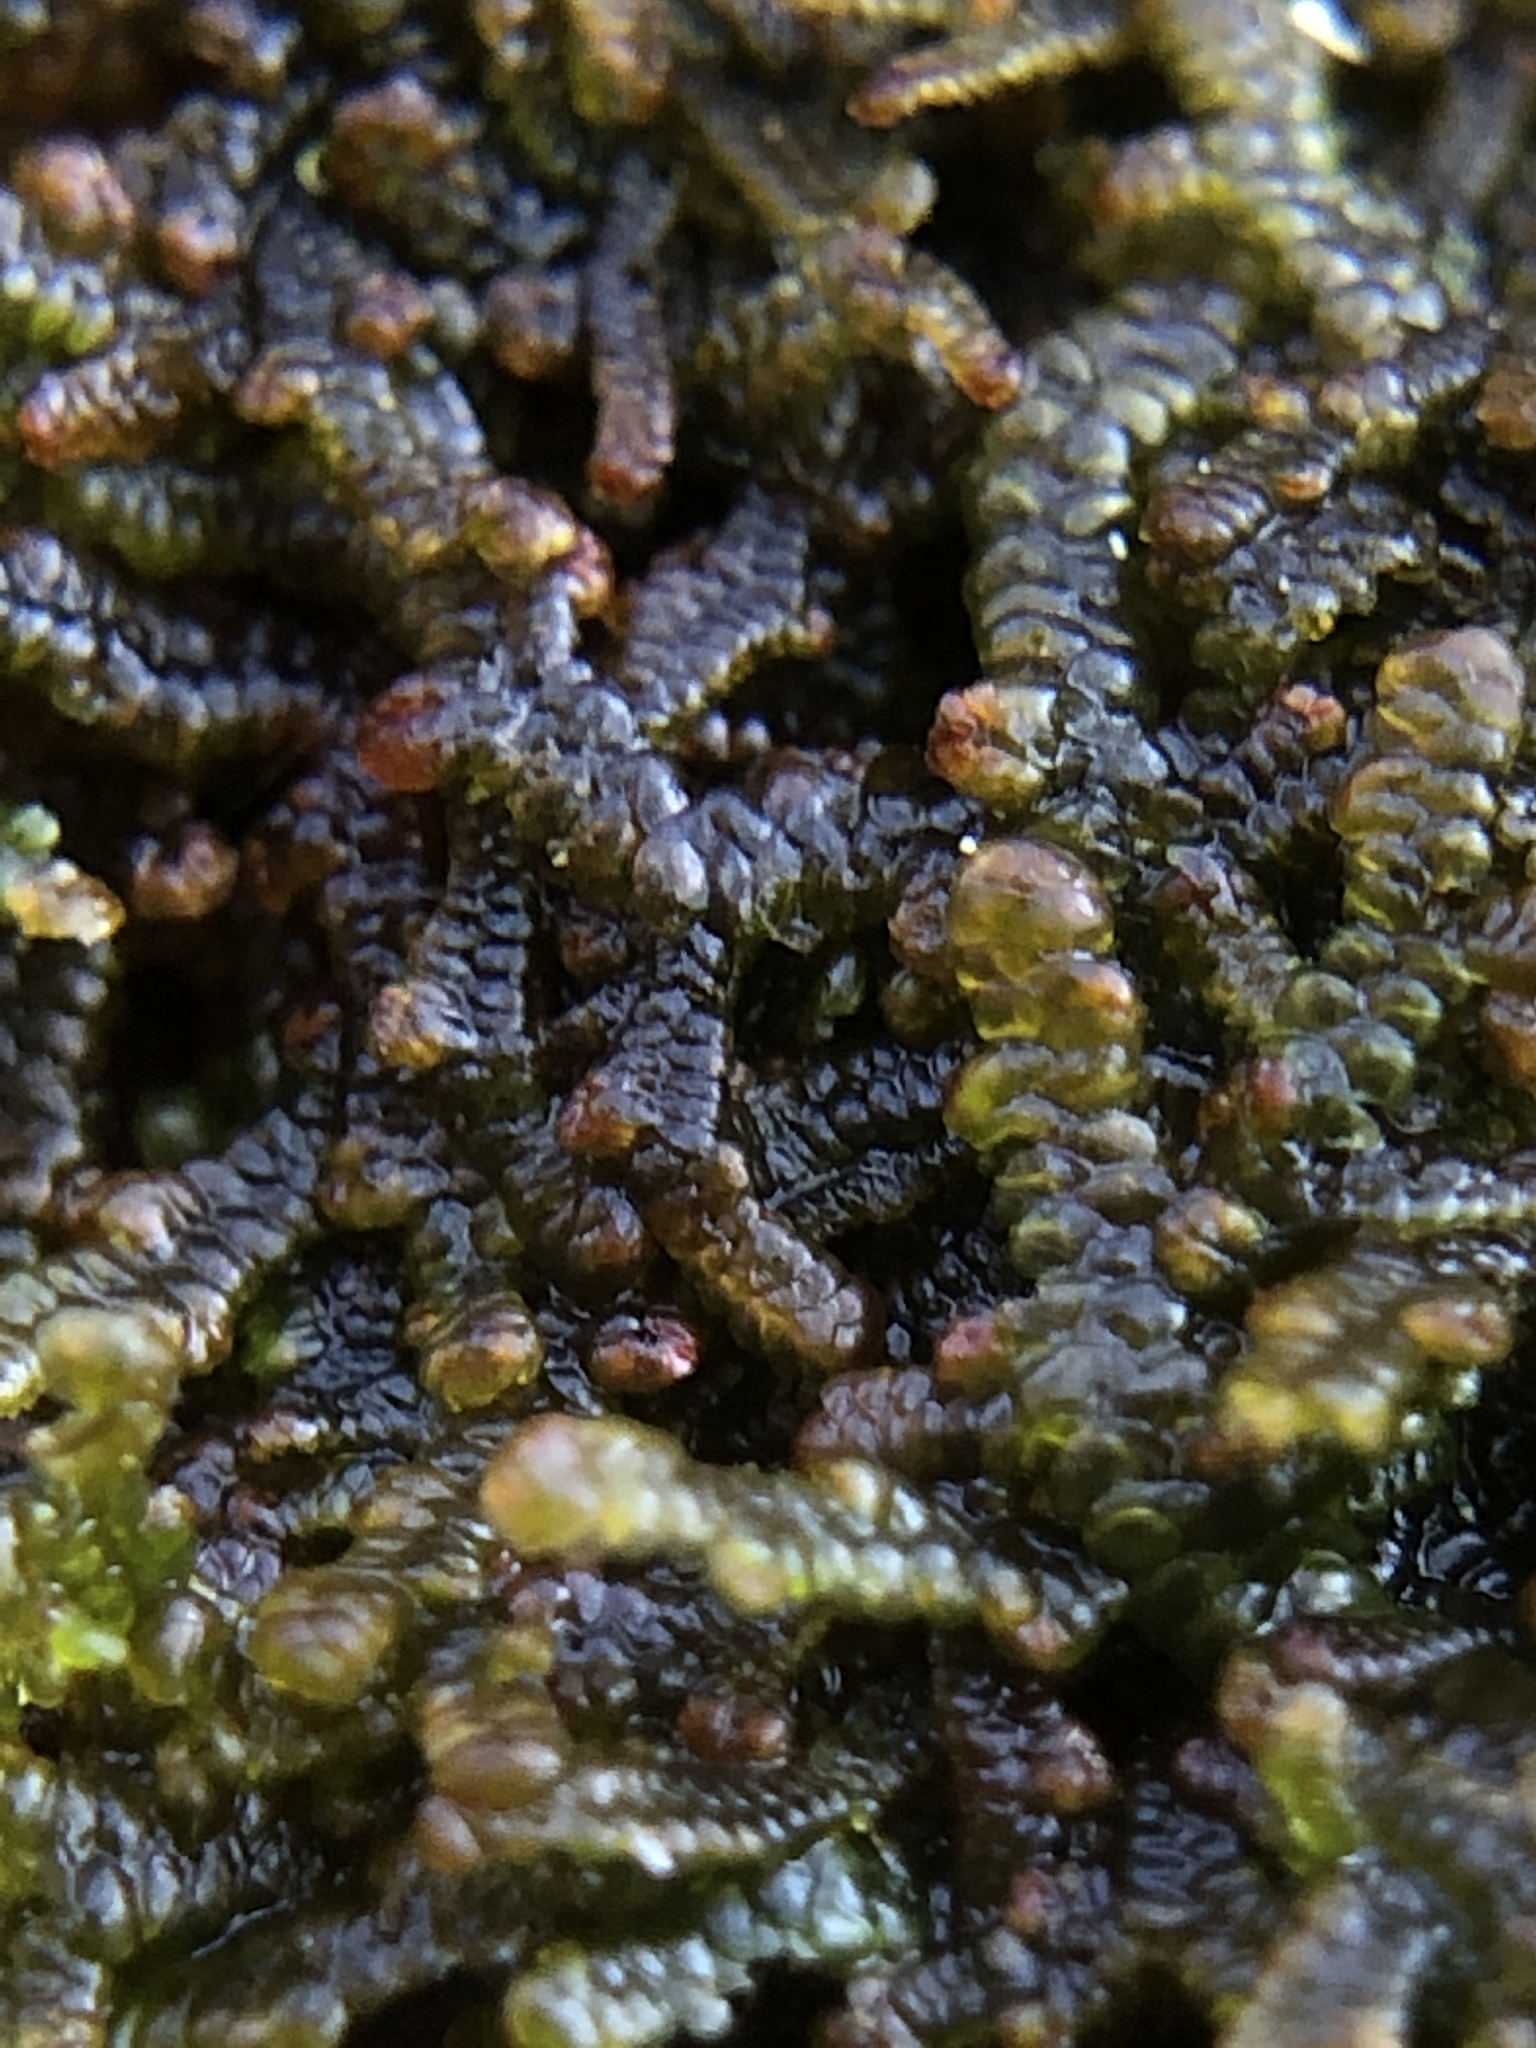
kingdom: Plantae
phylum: Marchantiophyta
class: Jungermanniopsida
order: Porellales
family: Frullaniaceae
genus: Frullania
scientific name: Frullania tamarisci
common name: Tamarisk scalewort
